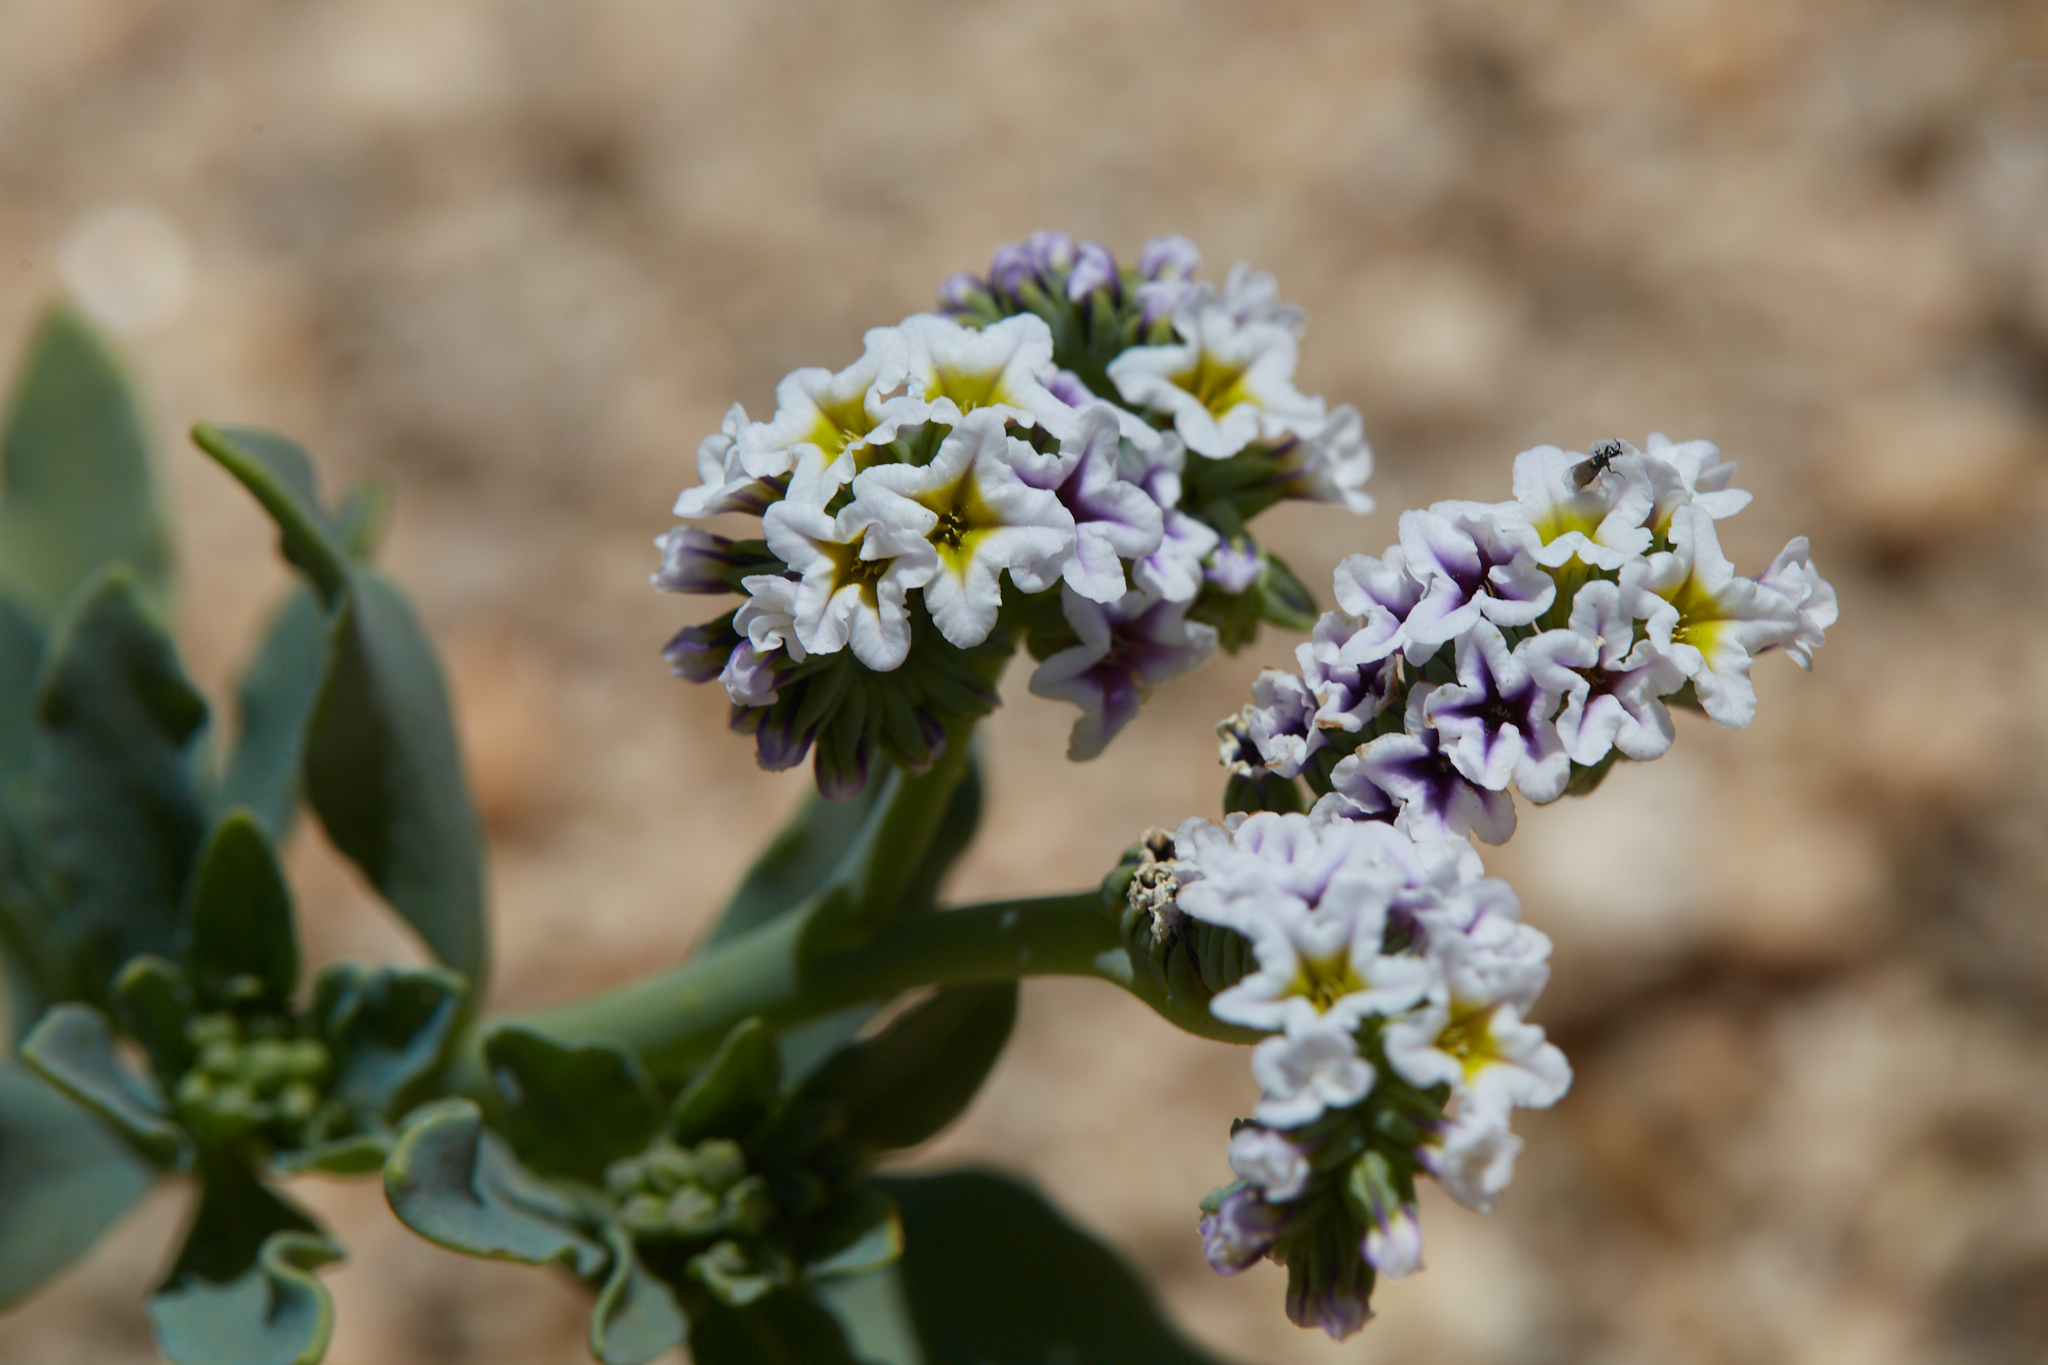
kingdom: Plantae
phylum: Tracheophyta
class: Magnoliopsida
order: Boraginales
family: Heliotropiaceae
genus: Heliotropium
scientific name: Heliotropium curassavicum
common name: Seaside heliotrope
